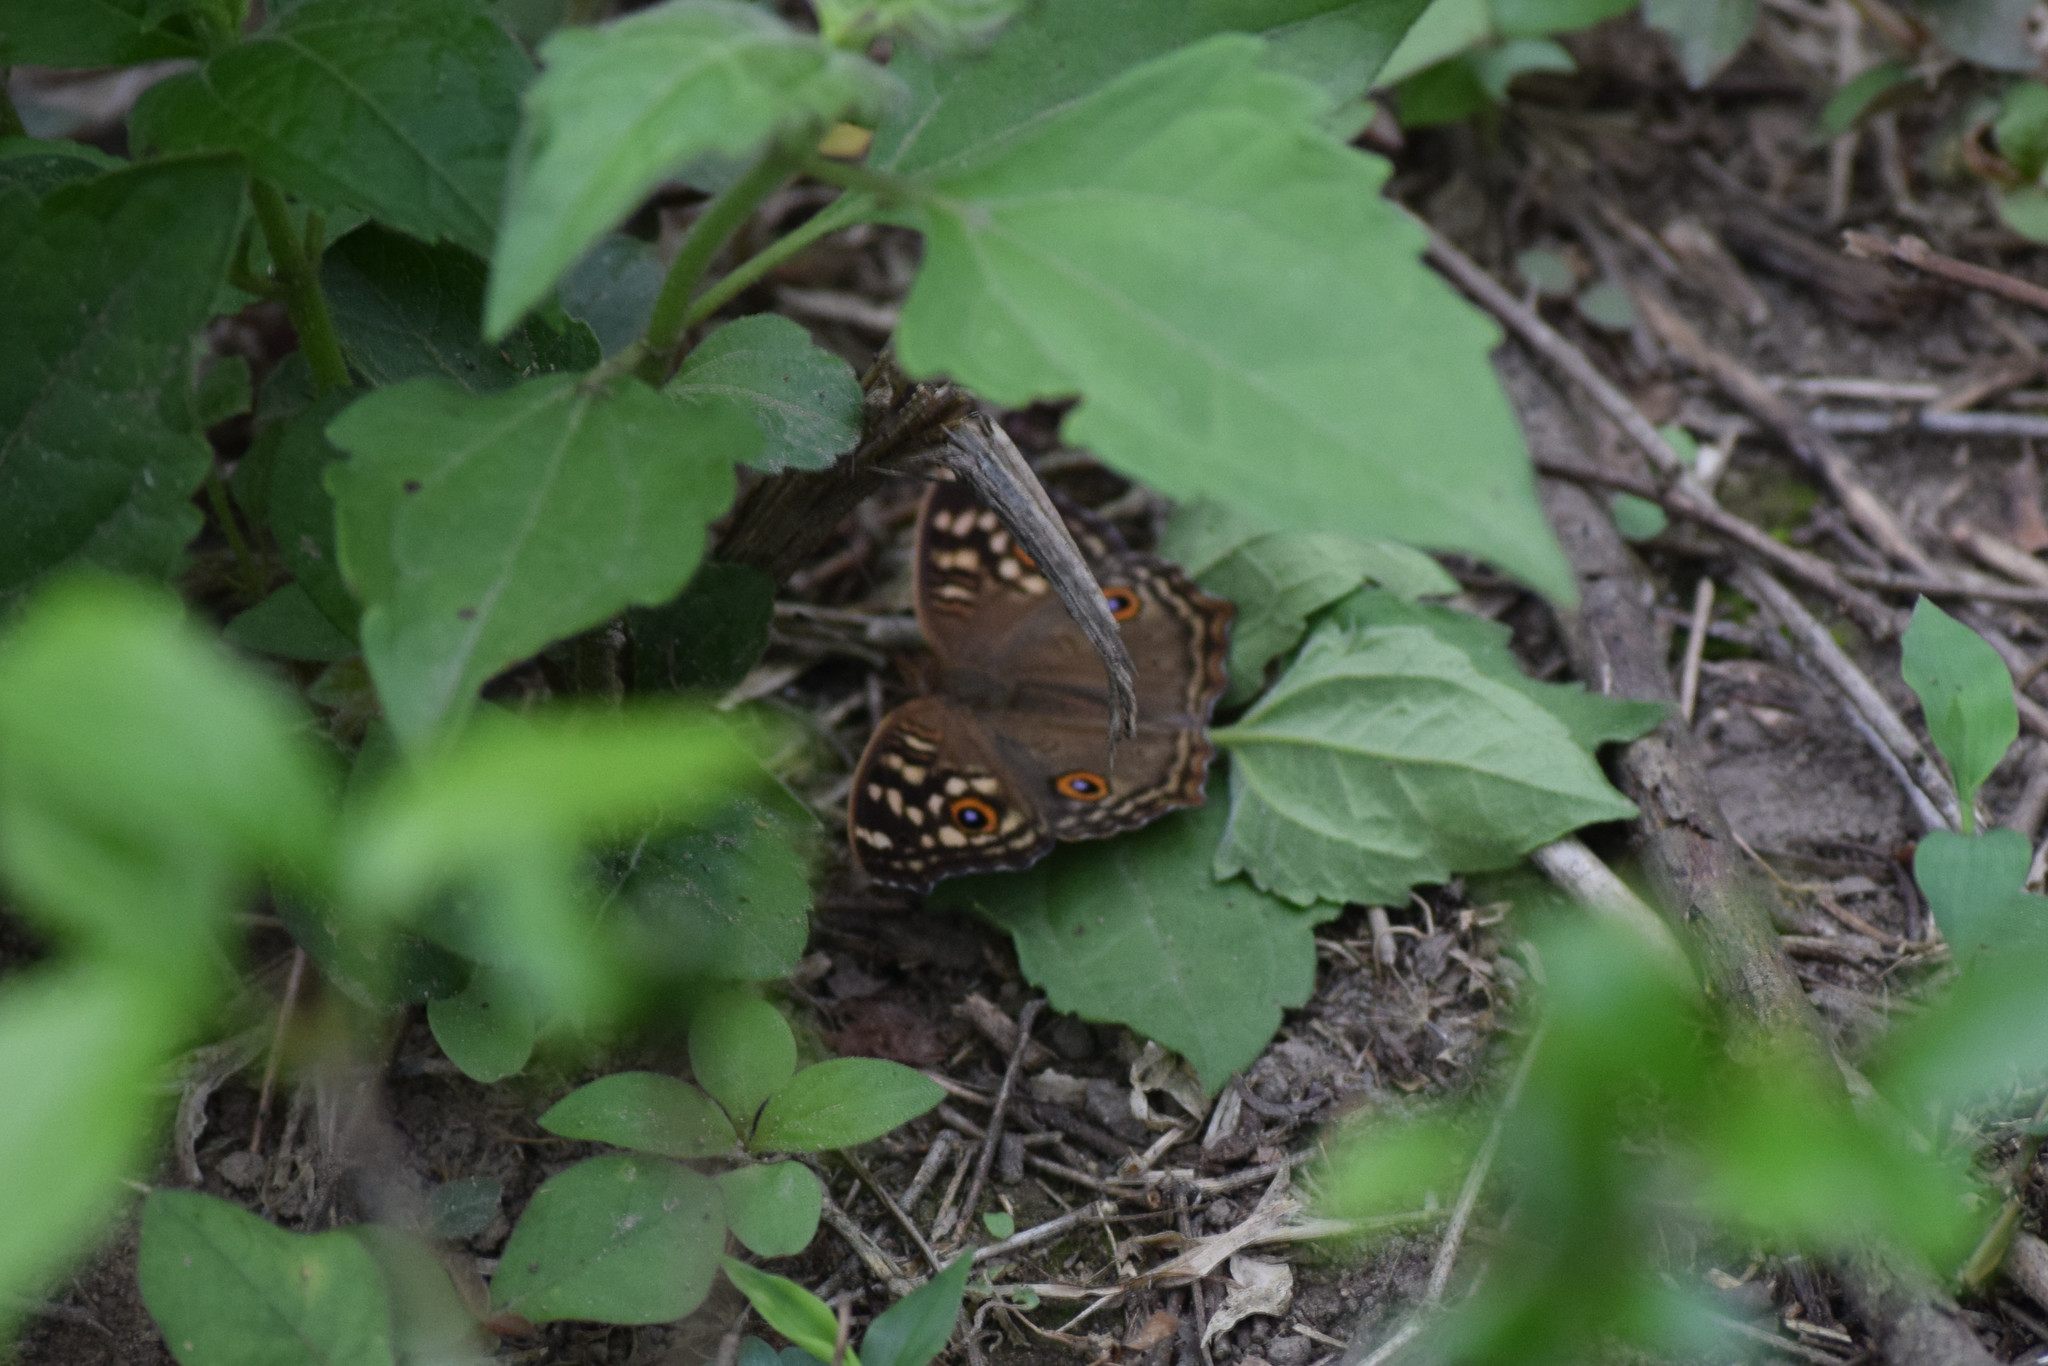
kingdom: Animalia
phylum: Arthropoda
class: Insecta
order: Lepidoptera
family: Nymphalidae
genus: Junonia
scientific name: Junonia lemonias
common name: Lemon pansy
